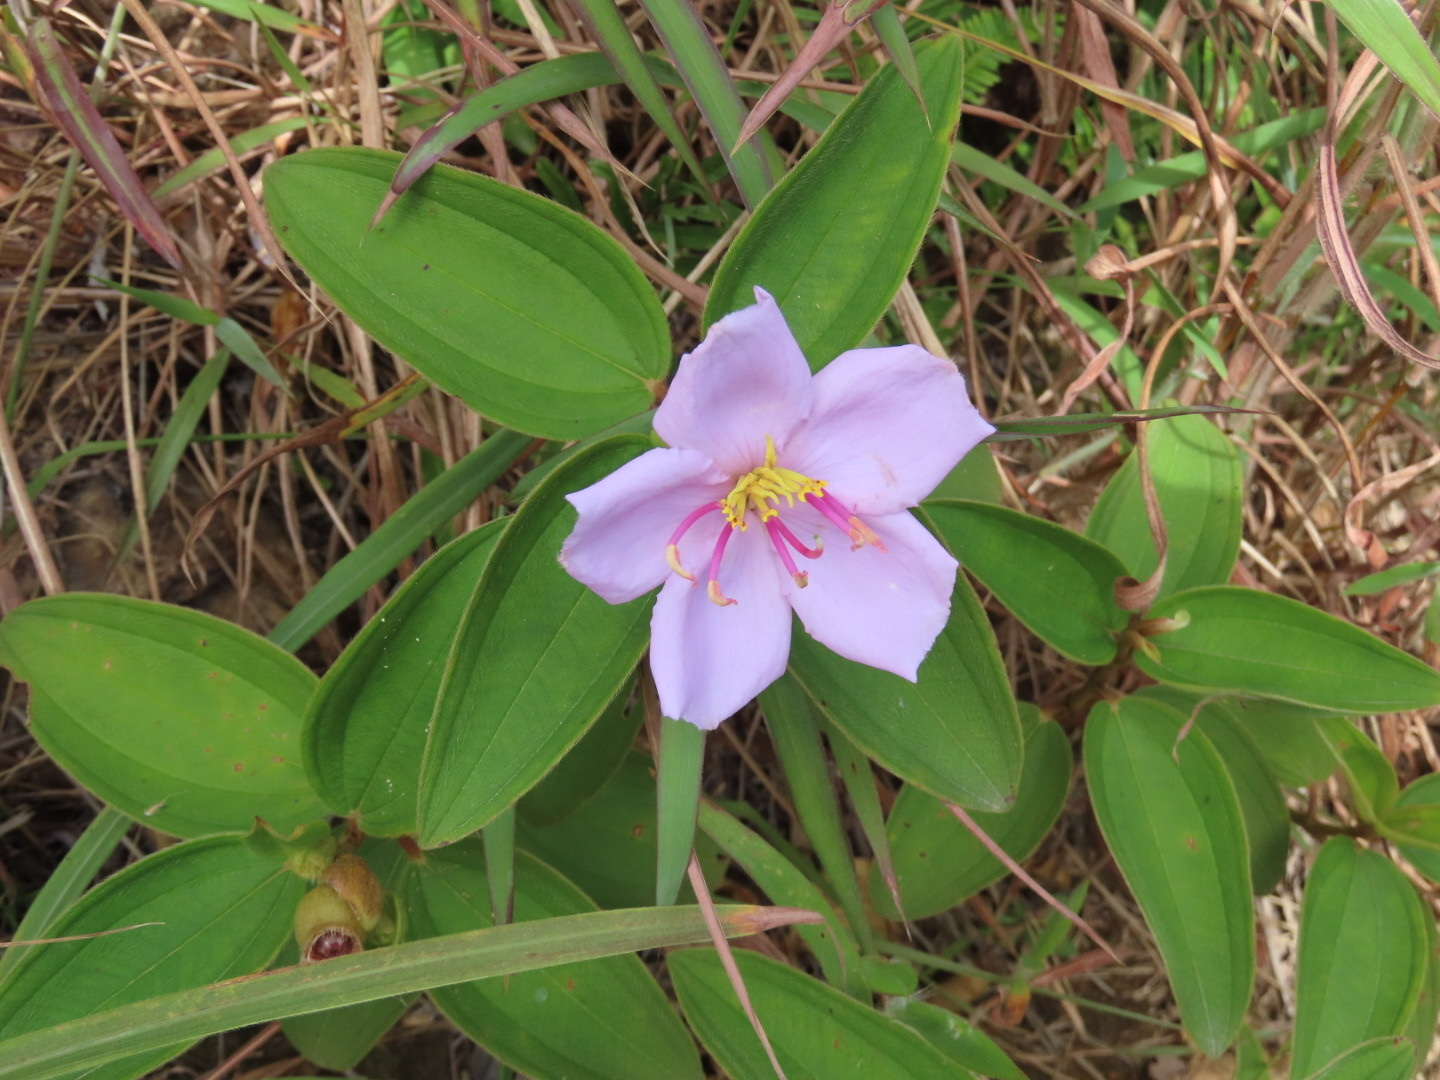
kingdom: Plantae
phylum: Tracheophyta
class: Magnoliopsida
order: Myrtales
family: Melastomataceae
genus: Melastoma
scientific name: Melastoma malabathricum
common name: Indian-rhododendron
